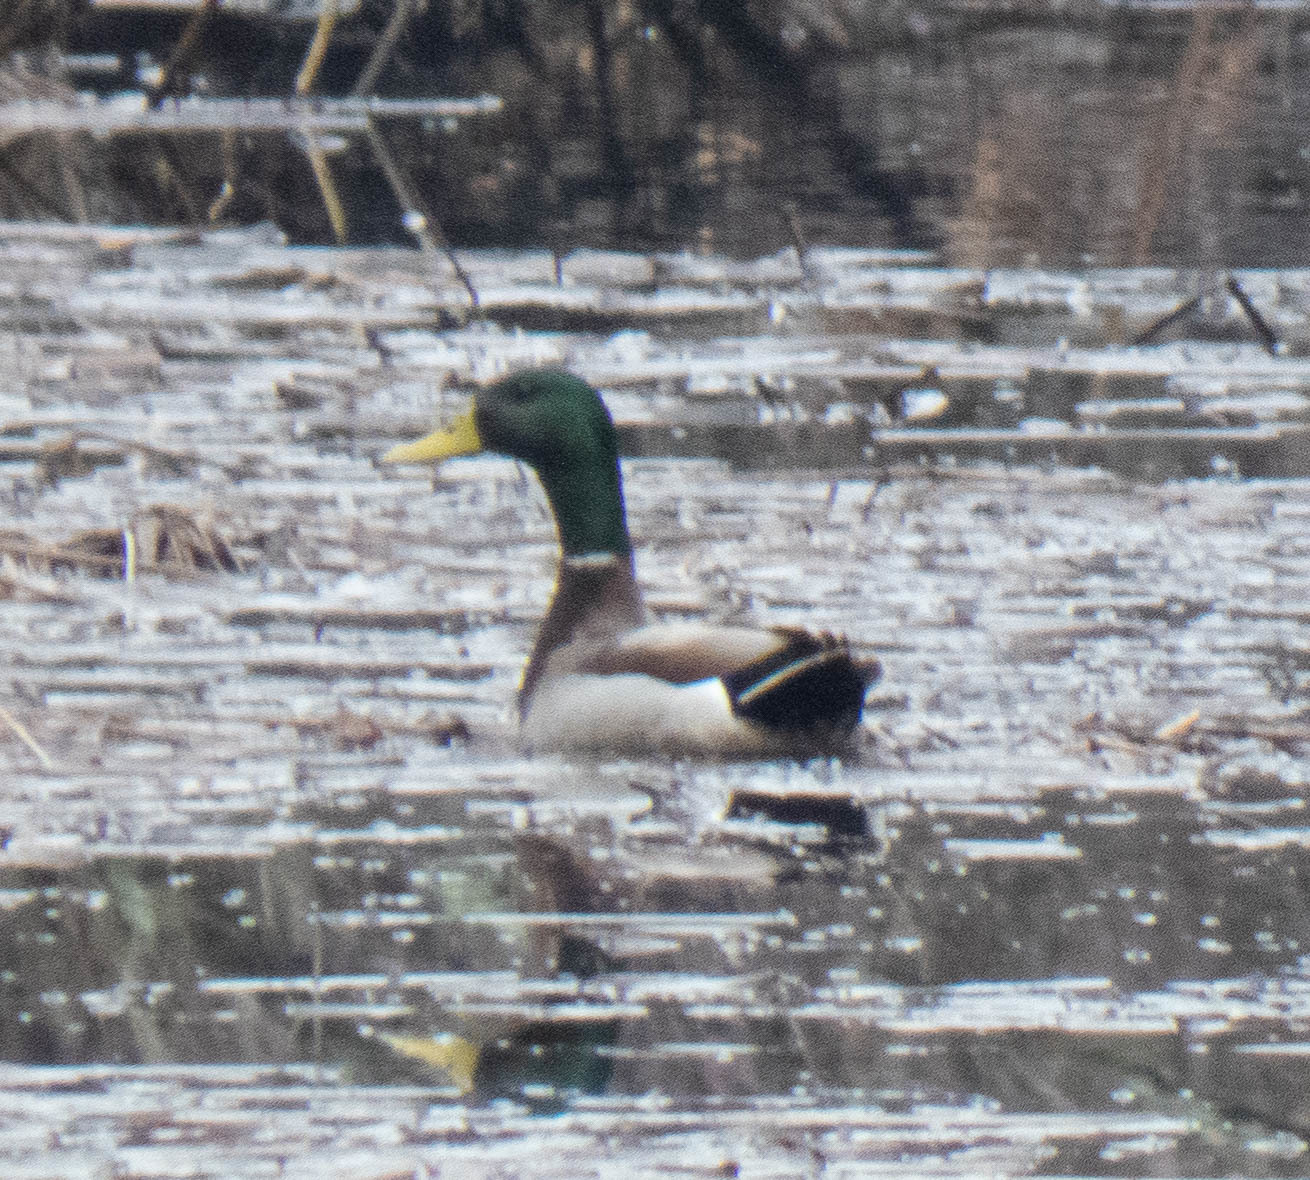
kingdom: Animalia
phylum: Chordata
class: Aves
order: Anseriformes
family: Anatidae
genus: Anas
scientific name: Anas platyrhynchos
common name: Mallard
